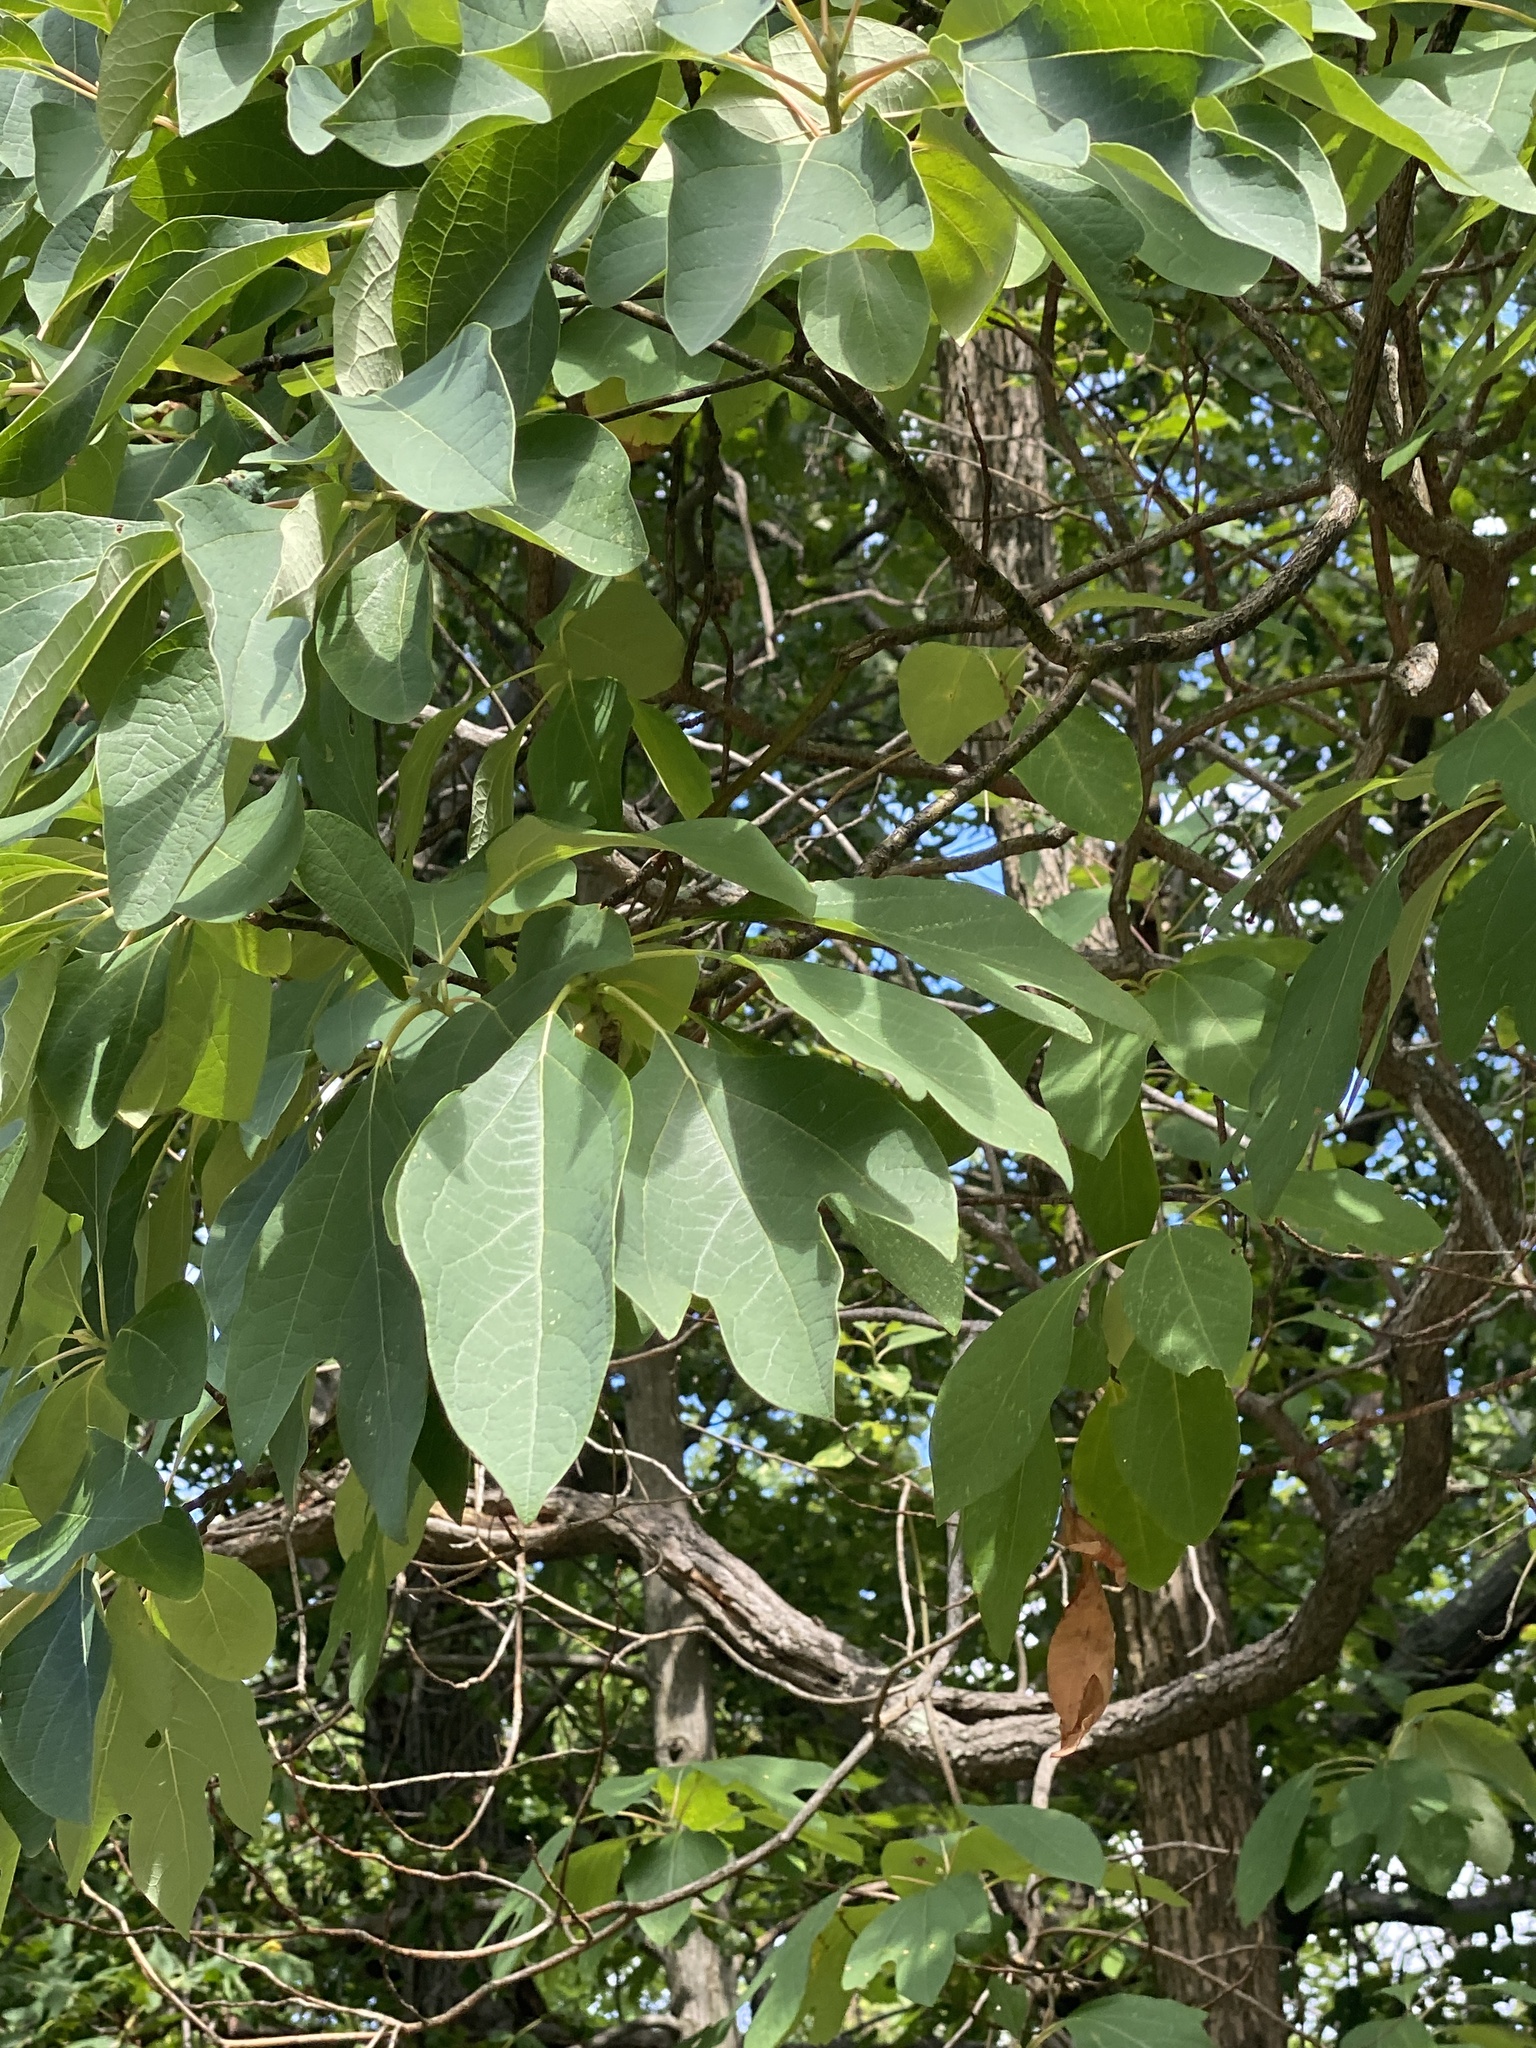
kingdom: Plantae
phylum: Tracheophyta
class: Magnoliopsida
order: Laurales
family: Lauraceae
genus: Sassafras
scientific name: Sassafras albidum
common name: Sassafras
